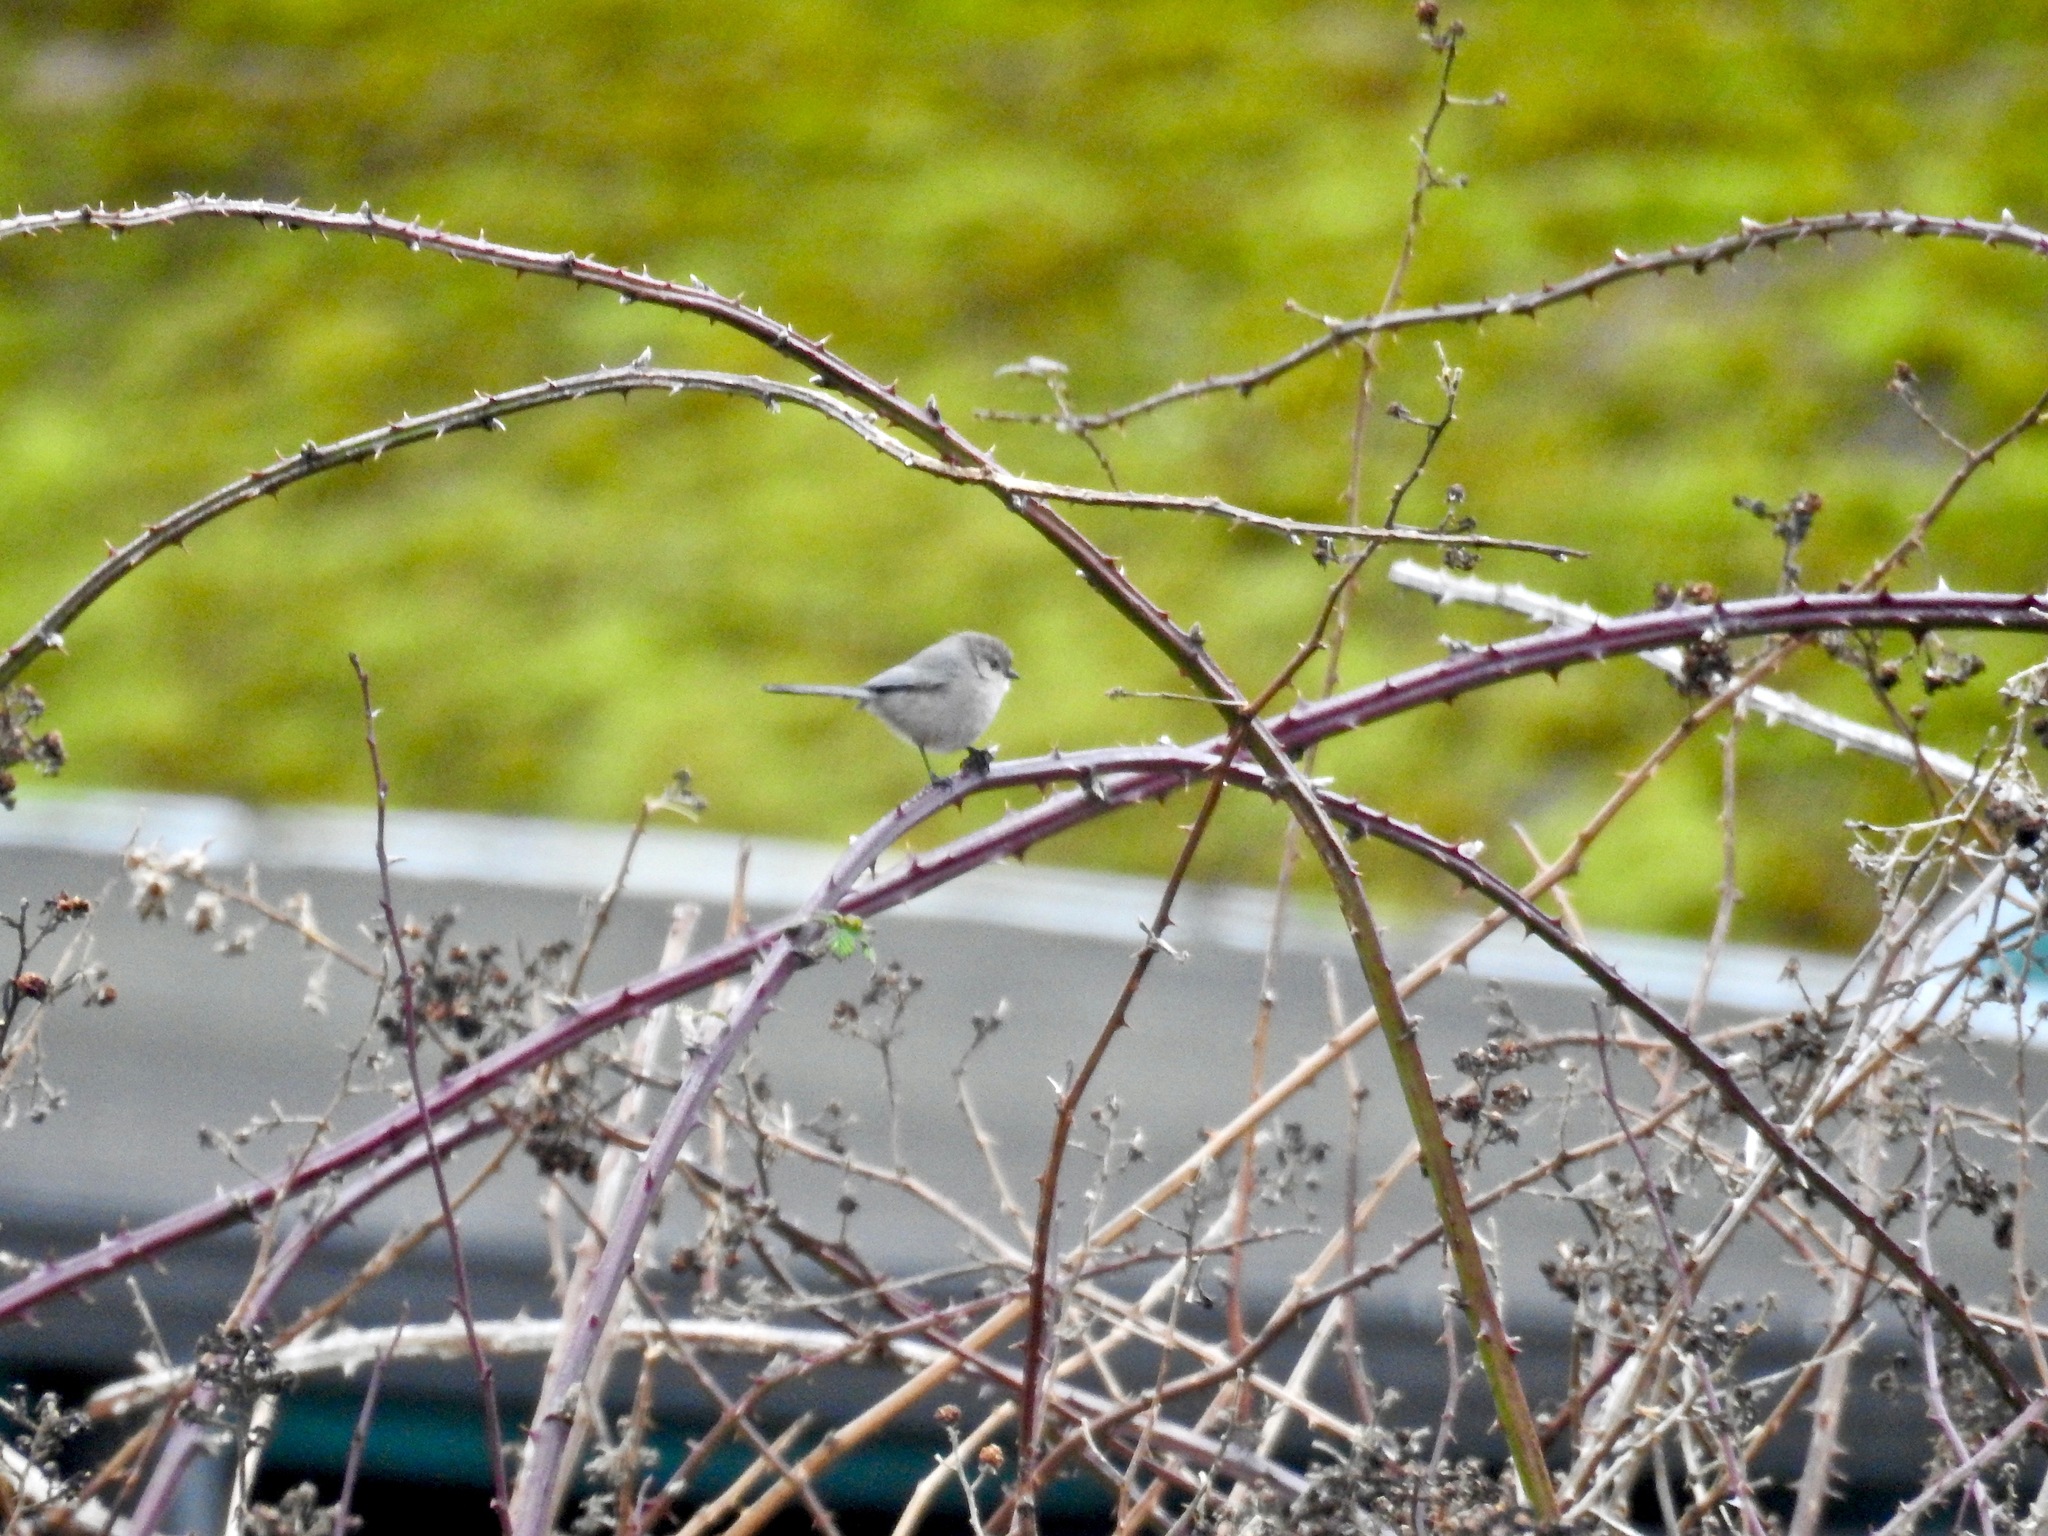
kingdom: Animalia
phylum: Chordata
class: Aves
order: Passeriformes
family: Aegithalidae
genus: Psaltriparus
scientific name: Psaltriparus minimus
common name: American bushtit
